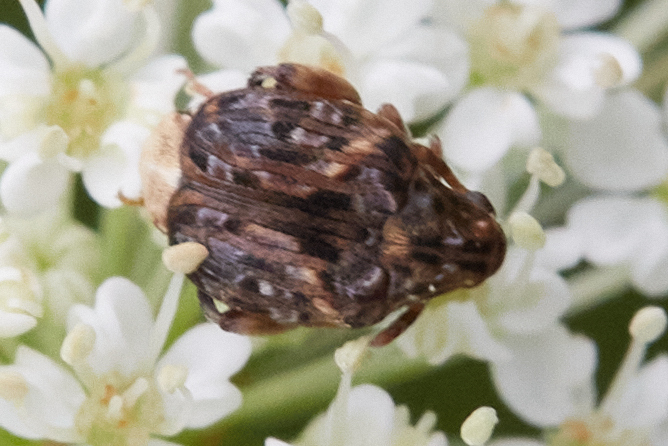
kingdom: Animalia
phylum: Arthropoda
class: Insecta
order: Coleoptera
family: Chrysomelidae
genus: Gibbobruchus
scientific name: Gibbobruchus mimus
